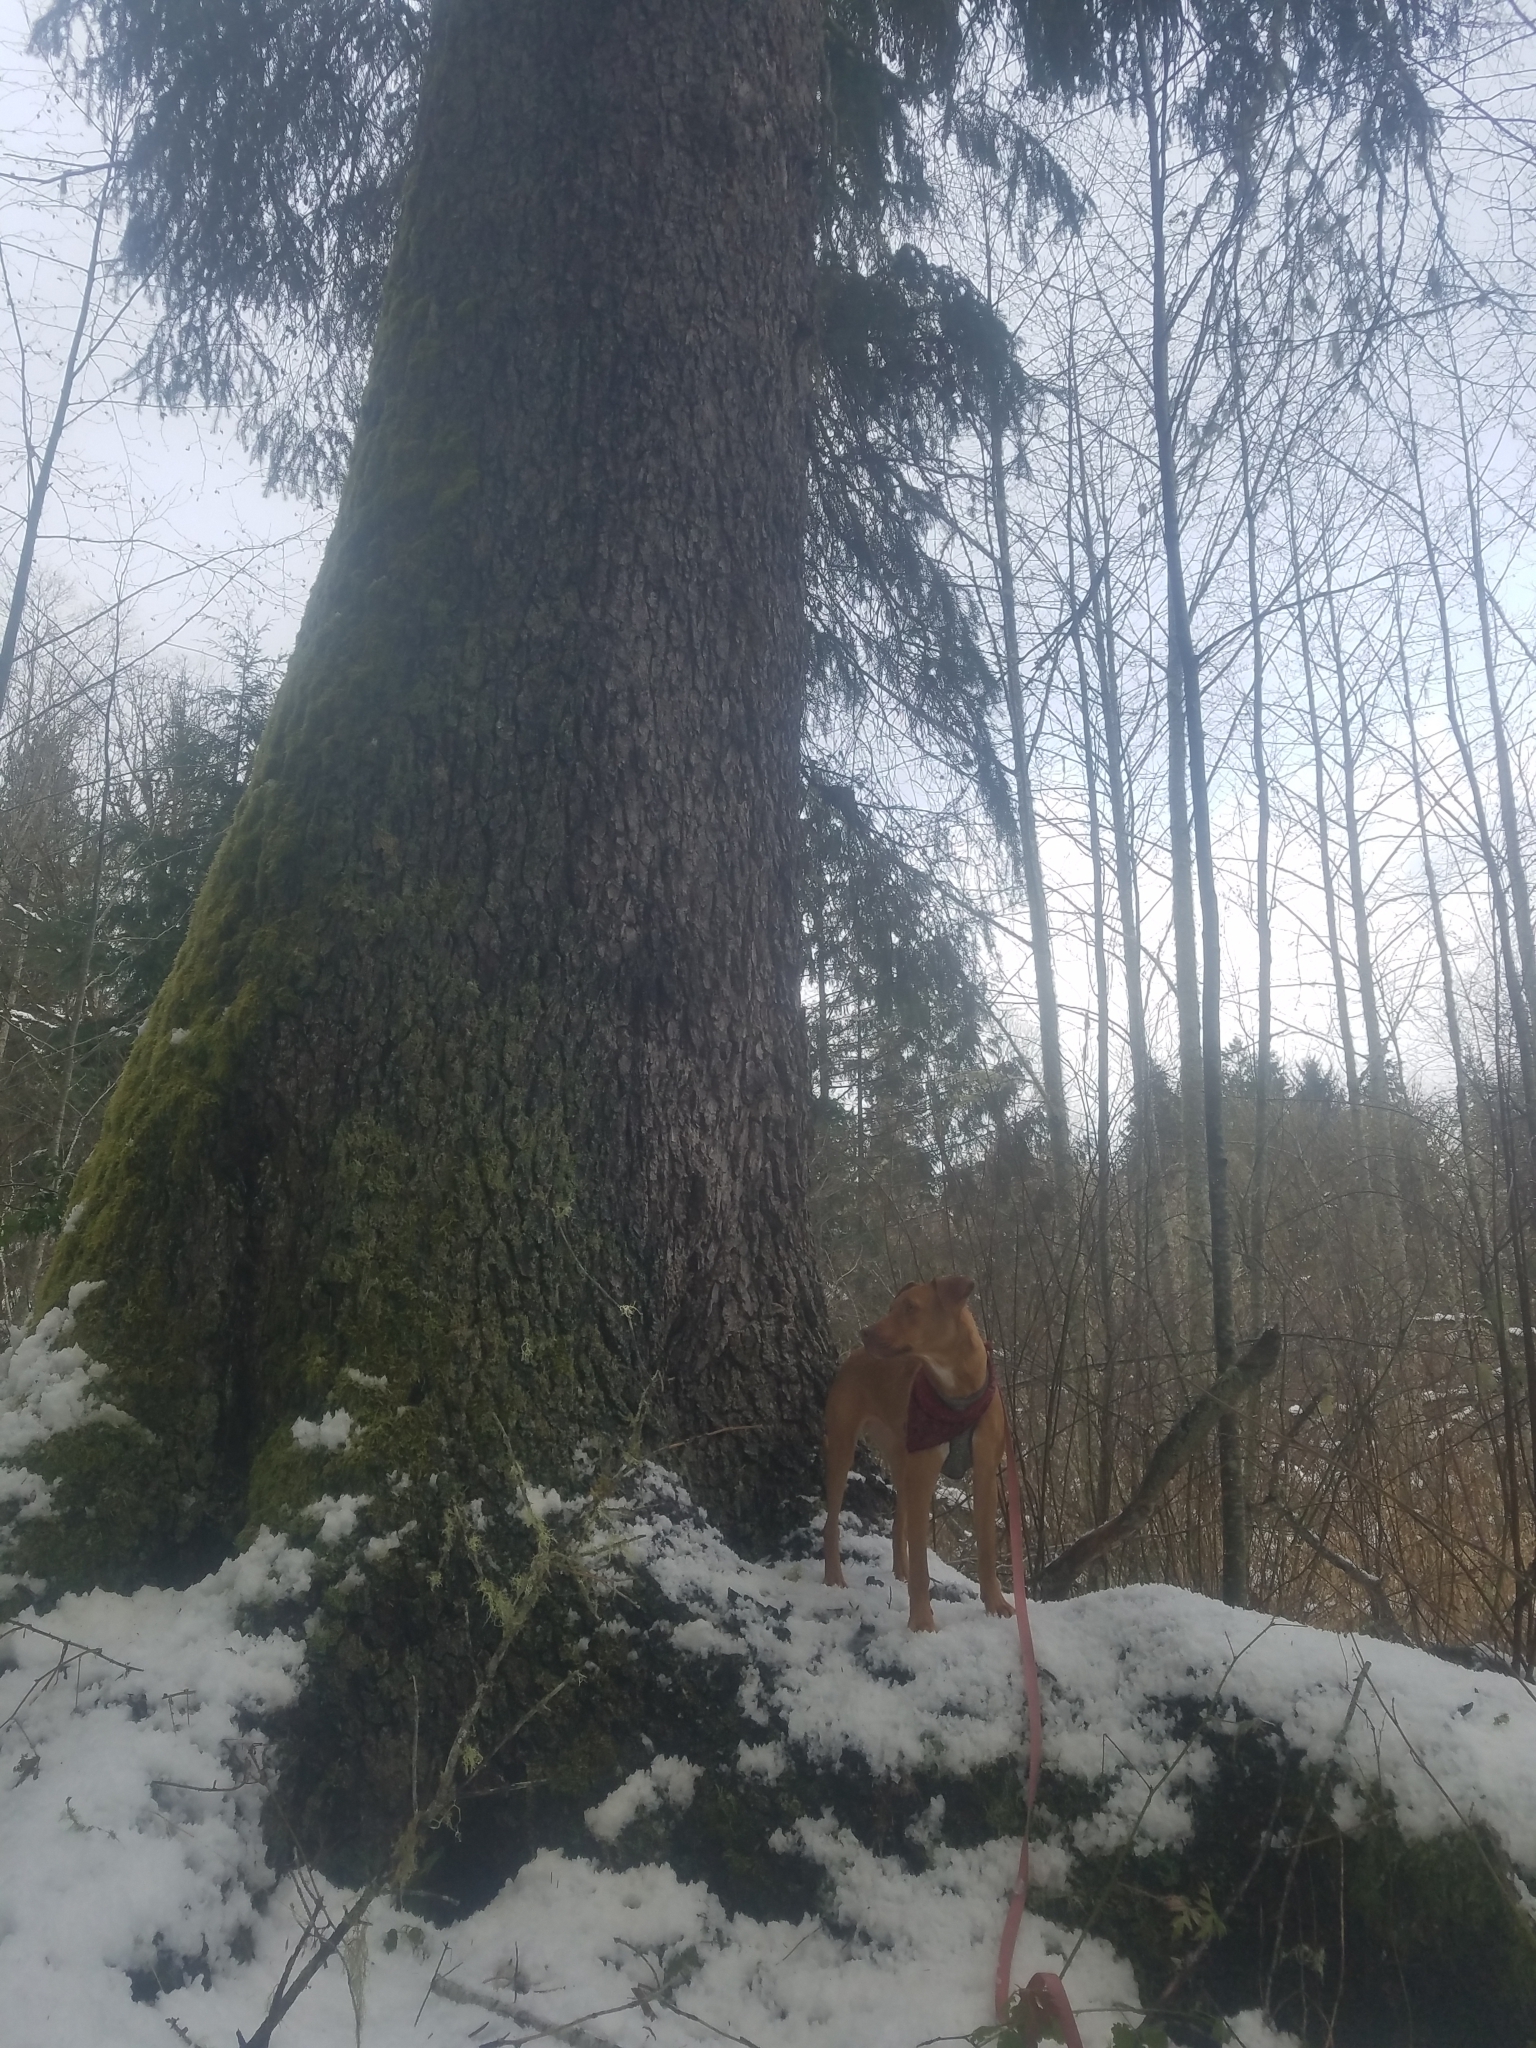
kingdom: Plantae
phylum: Tracheophyta
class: Pinopsida
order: Pinales
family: Pinaceae
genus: Picea
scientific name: Picea sitchensis
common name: Sitka spruce
